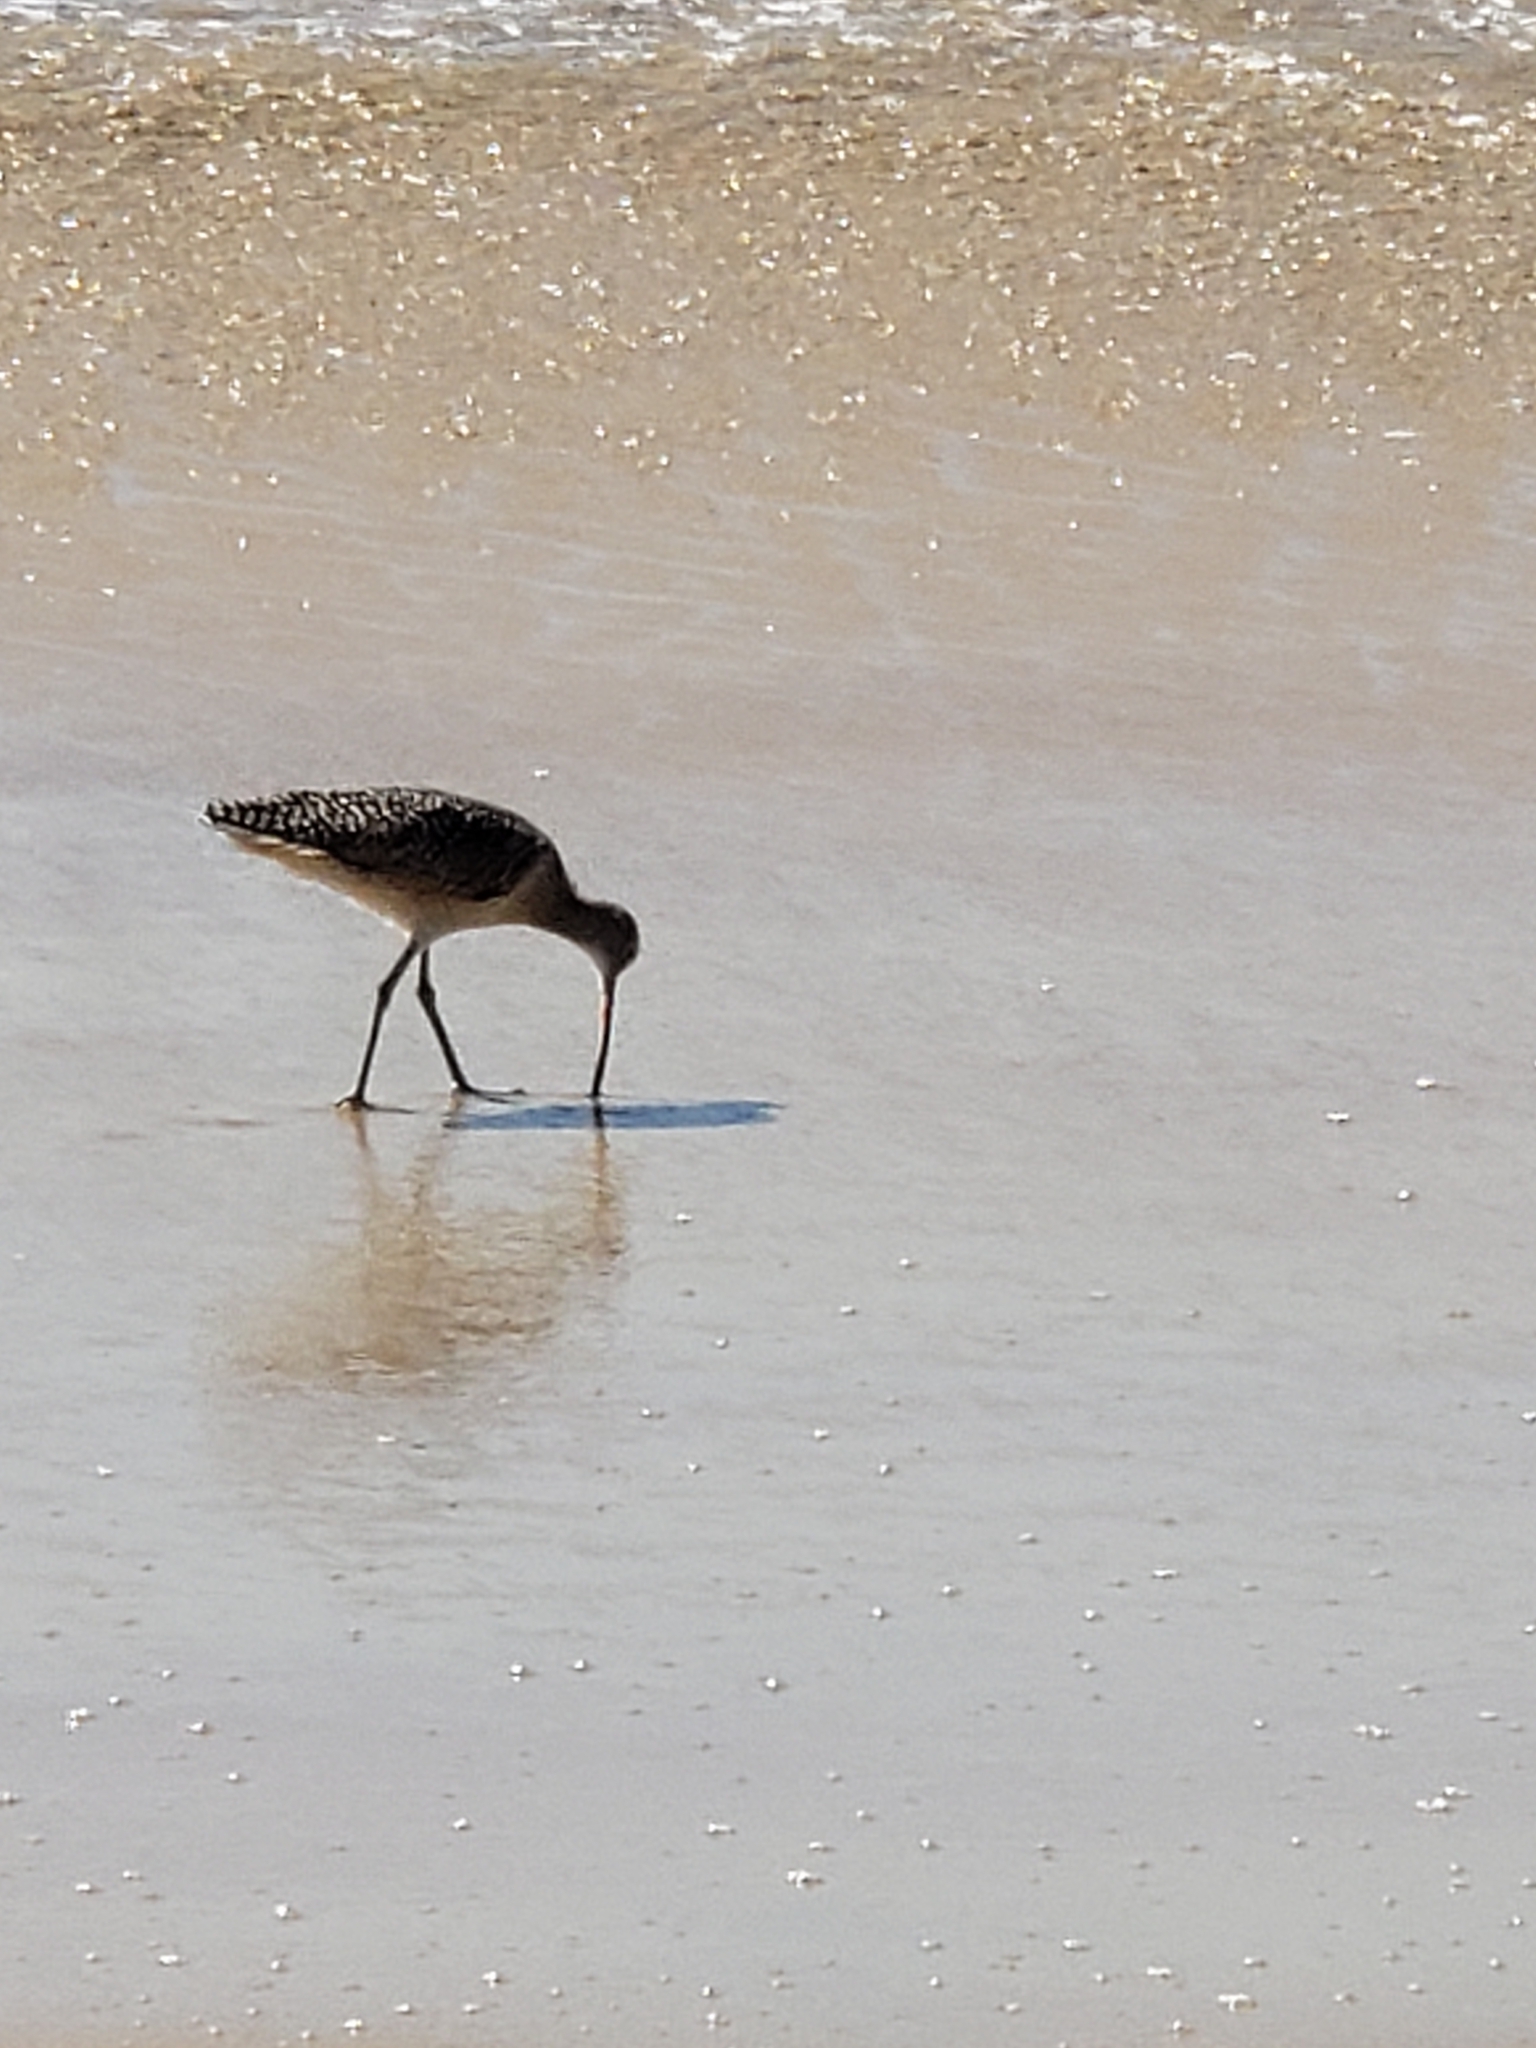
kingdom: Animalia
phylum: Chordata
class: Aves
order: Charadriiformes
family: Scolopacidae
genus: Numenius
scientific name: Numenius americanus
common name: Long-billed curlew
